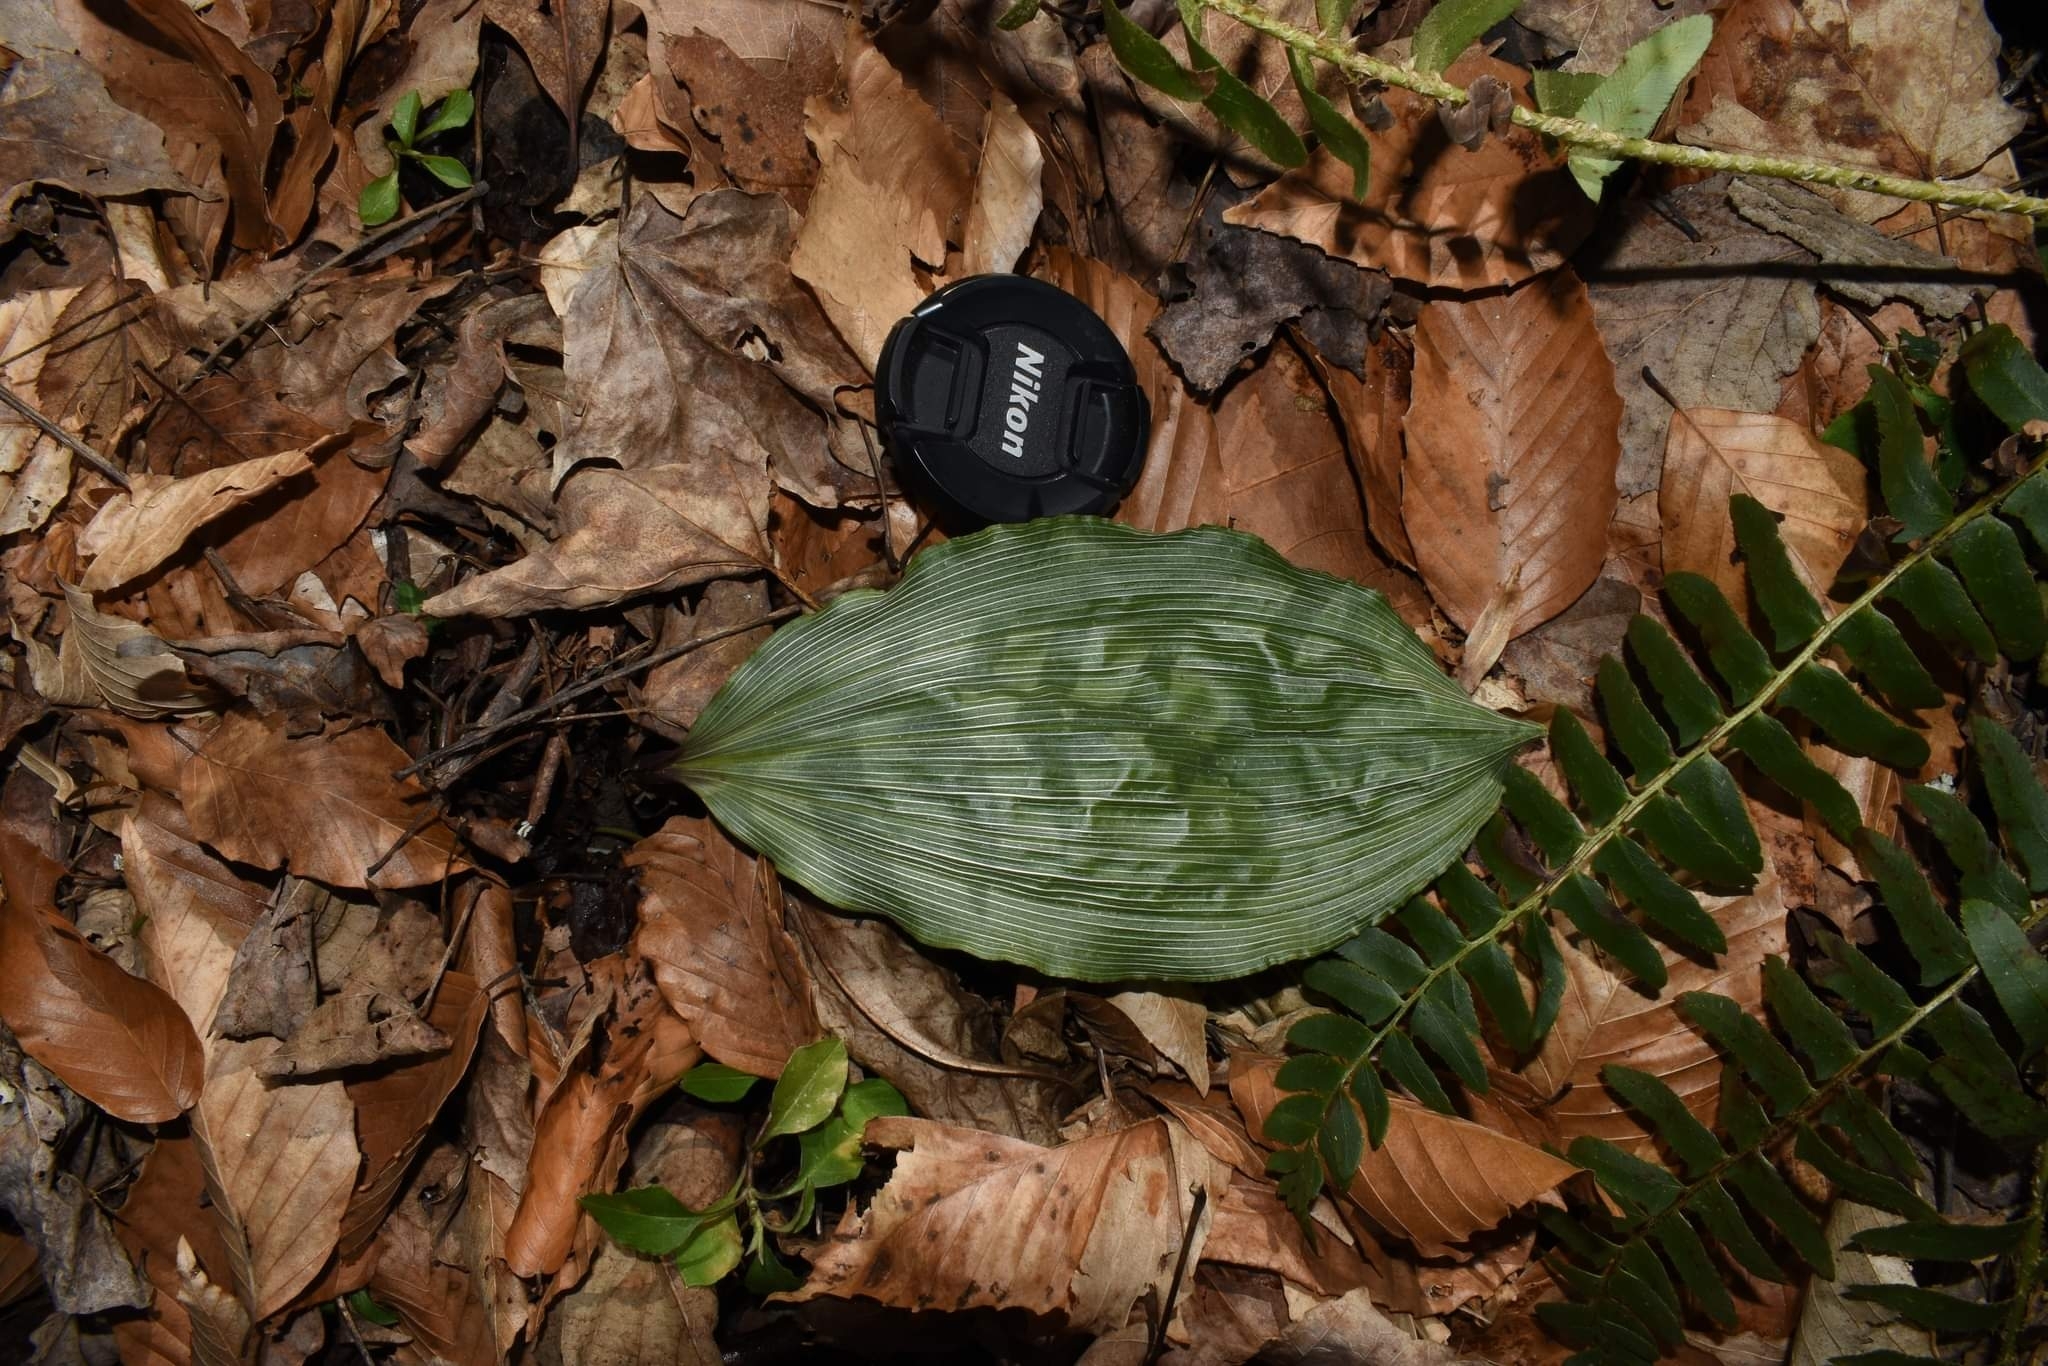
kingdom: Plantae
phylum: Tracheophyta
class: Liliopsida
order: Asparagales
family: Orchidaceae
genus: Aplectrum
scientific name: Aplectrum hyemale
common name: Adam-and-eve
